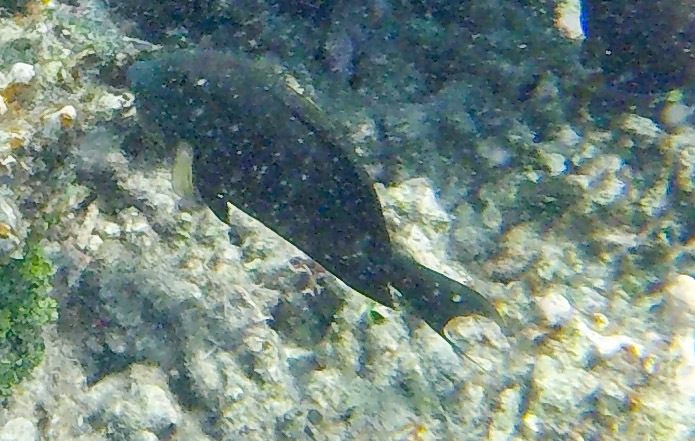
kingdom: Animalia
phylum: Chordata
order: Perciformes
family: Acanthuridae
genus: Ctenochaetus
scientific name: Ctenochaetus striatus
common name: Bristle-toothed surgeonfish
